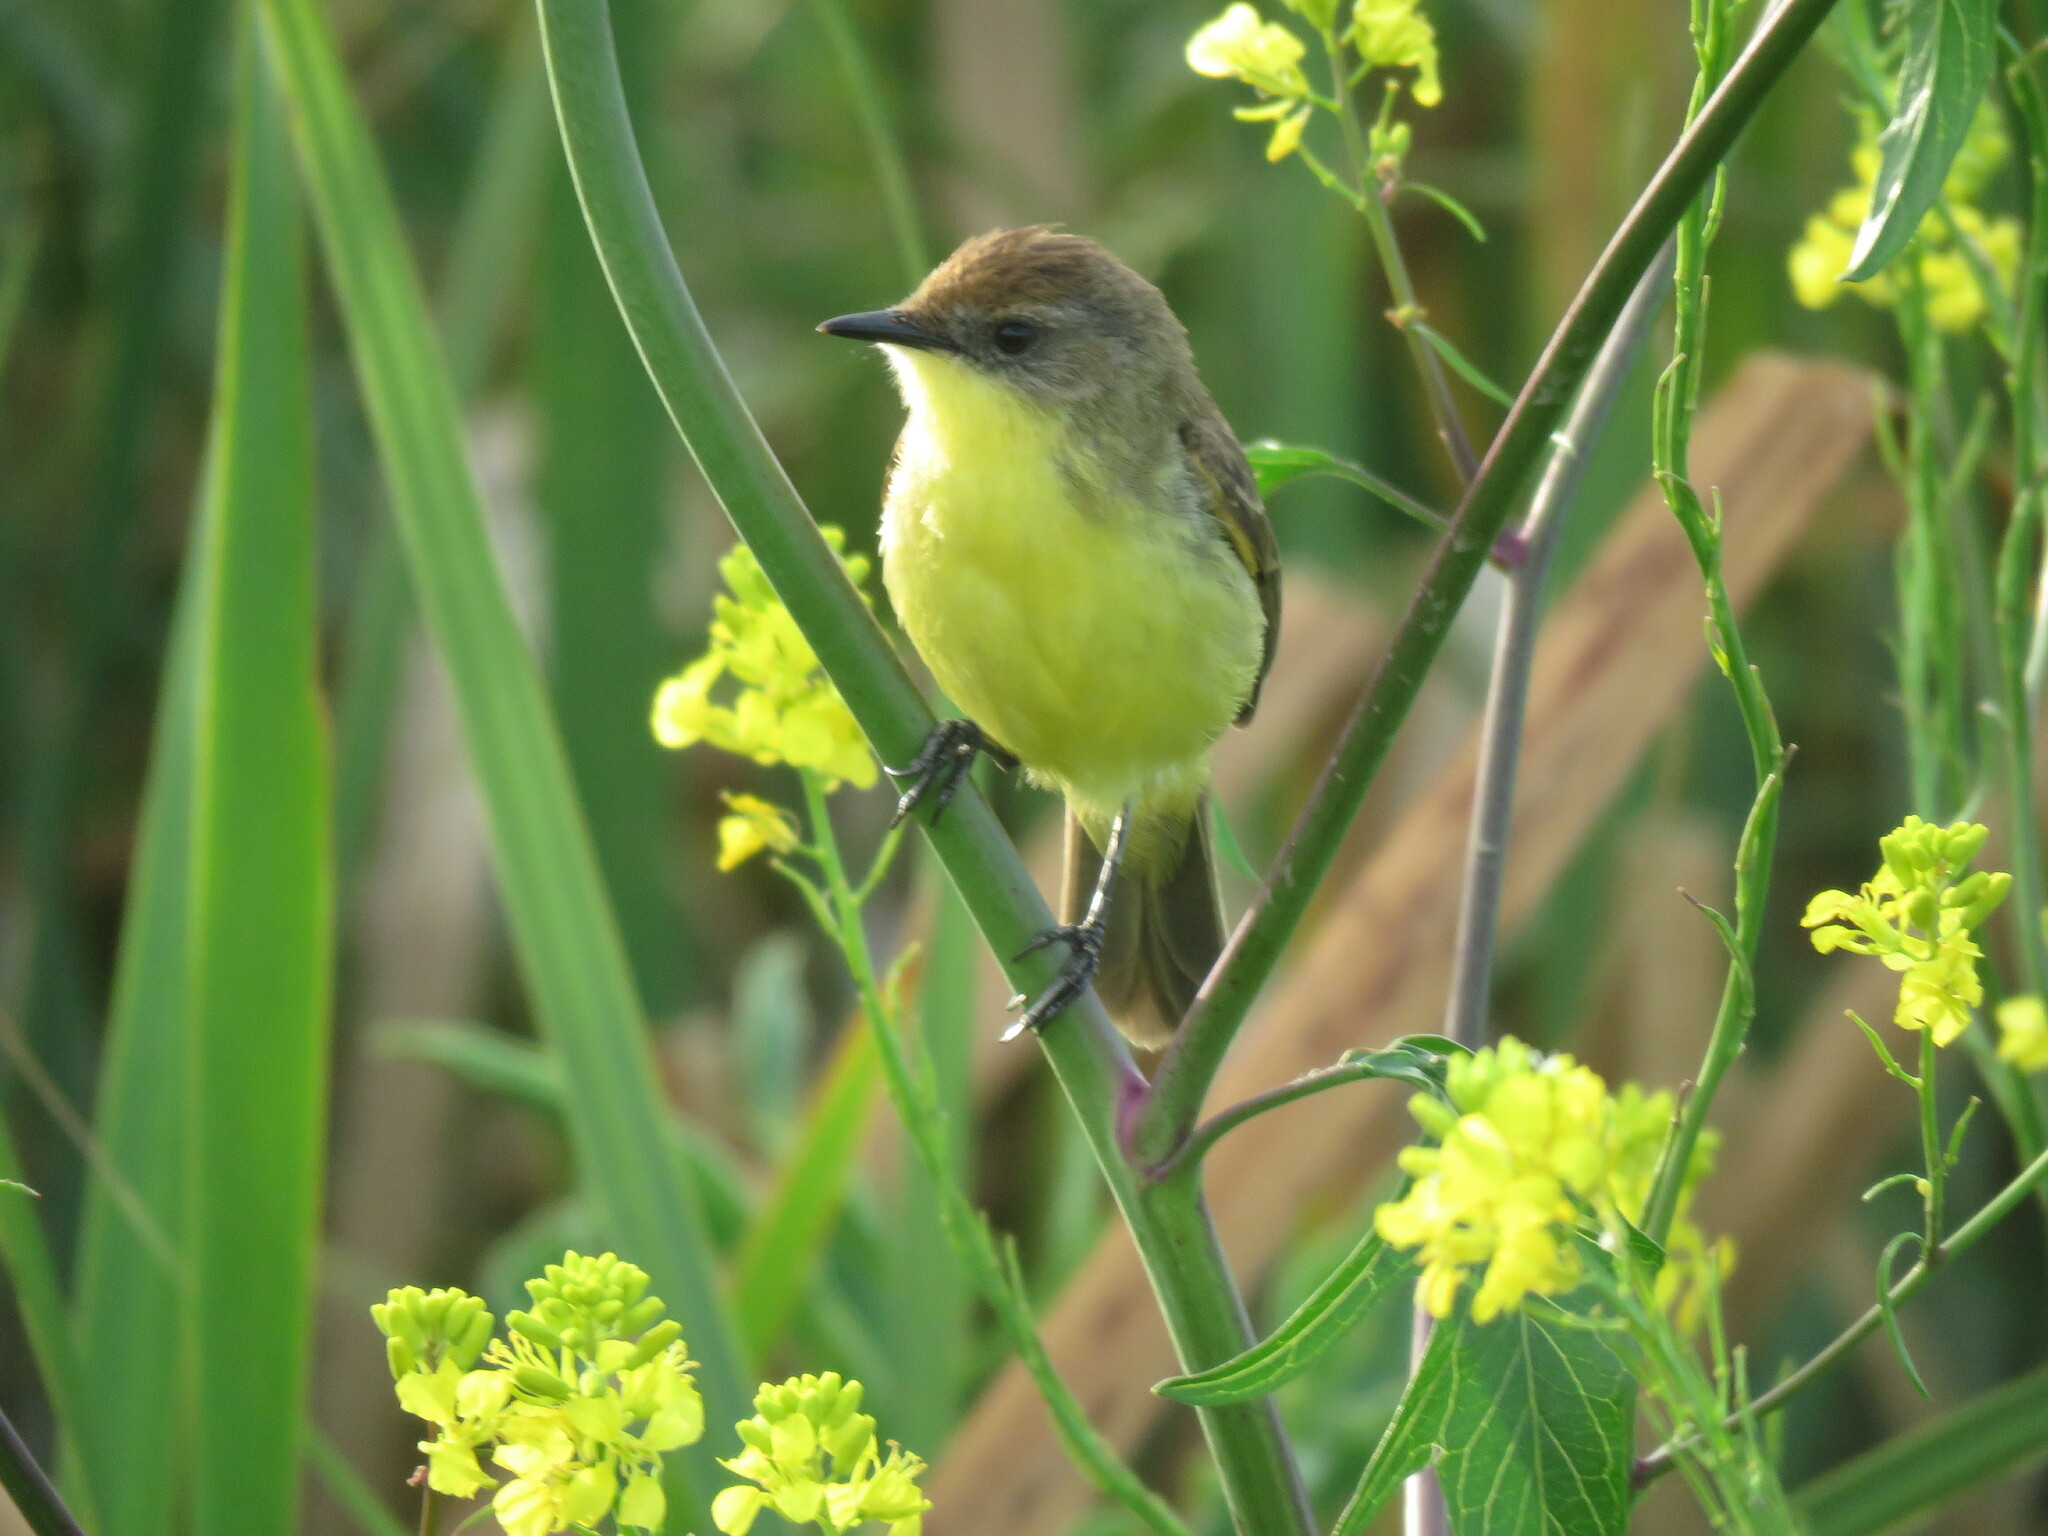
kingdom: Animalia
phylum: Chordata
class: Aves
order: Passeriformes
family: Tyrannidae
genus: Pseudocolopteryx
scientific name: Pseudocolopteryx flaviventris
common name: Warbling doradito
